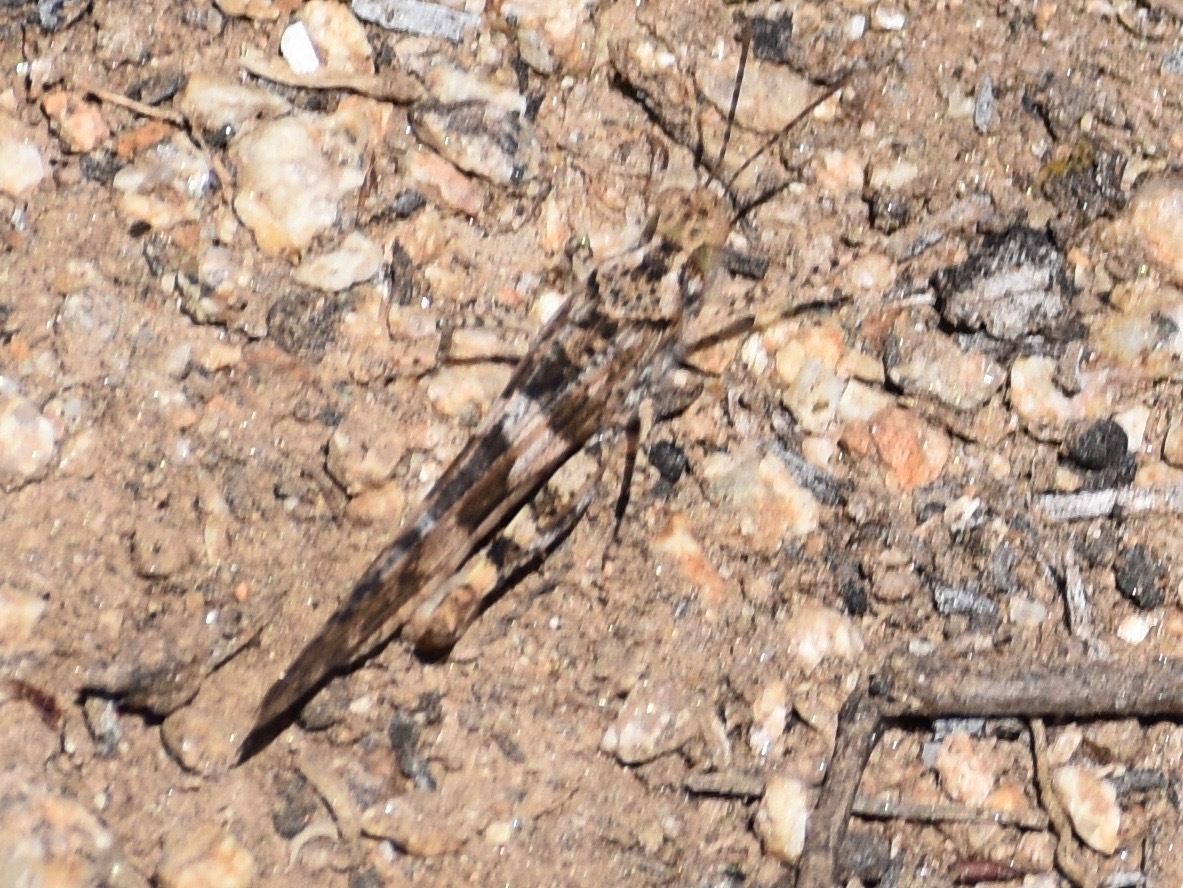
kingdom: Animalia
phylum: Arthropoda
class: Insecta
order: Orthoptera
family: Acrididae
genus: Trimerotropis
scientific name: Trimerotropis pallidipennis
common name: Pallid-winged grasshopper
